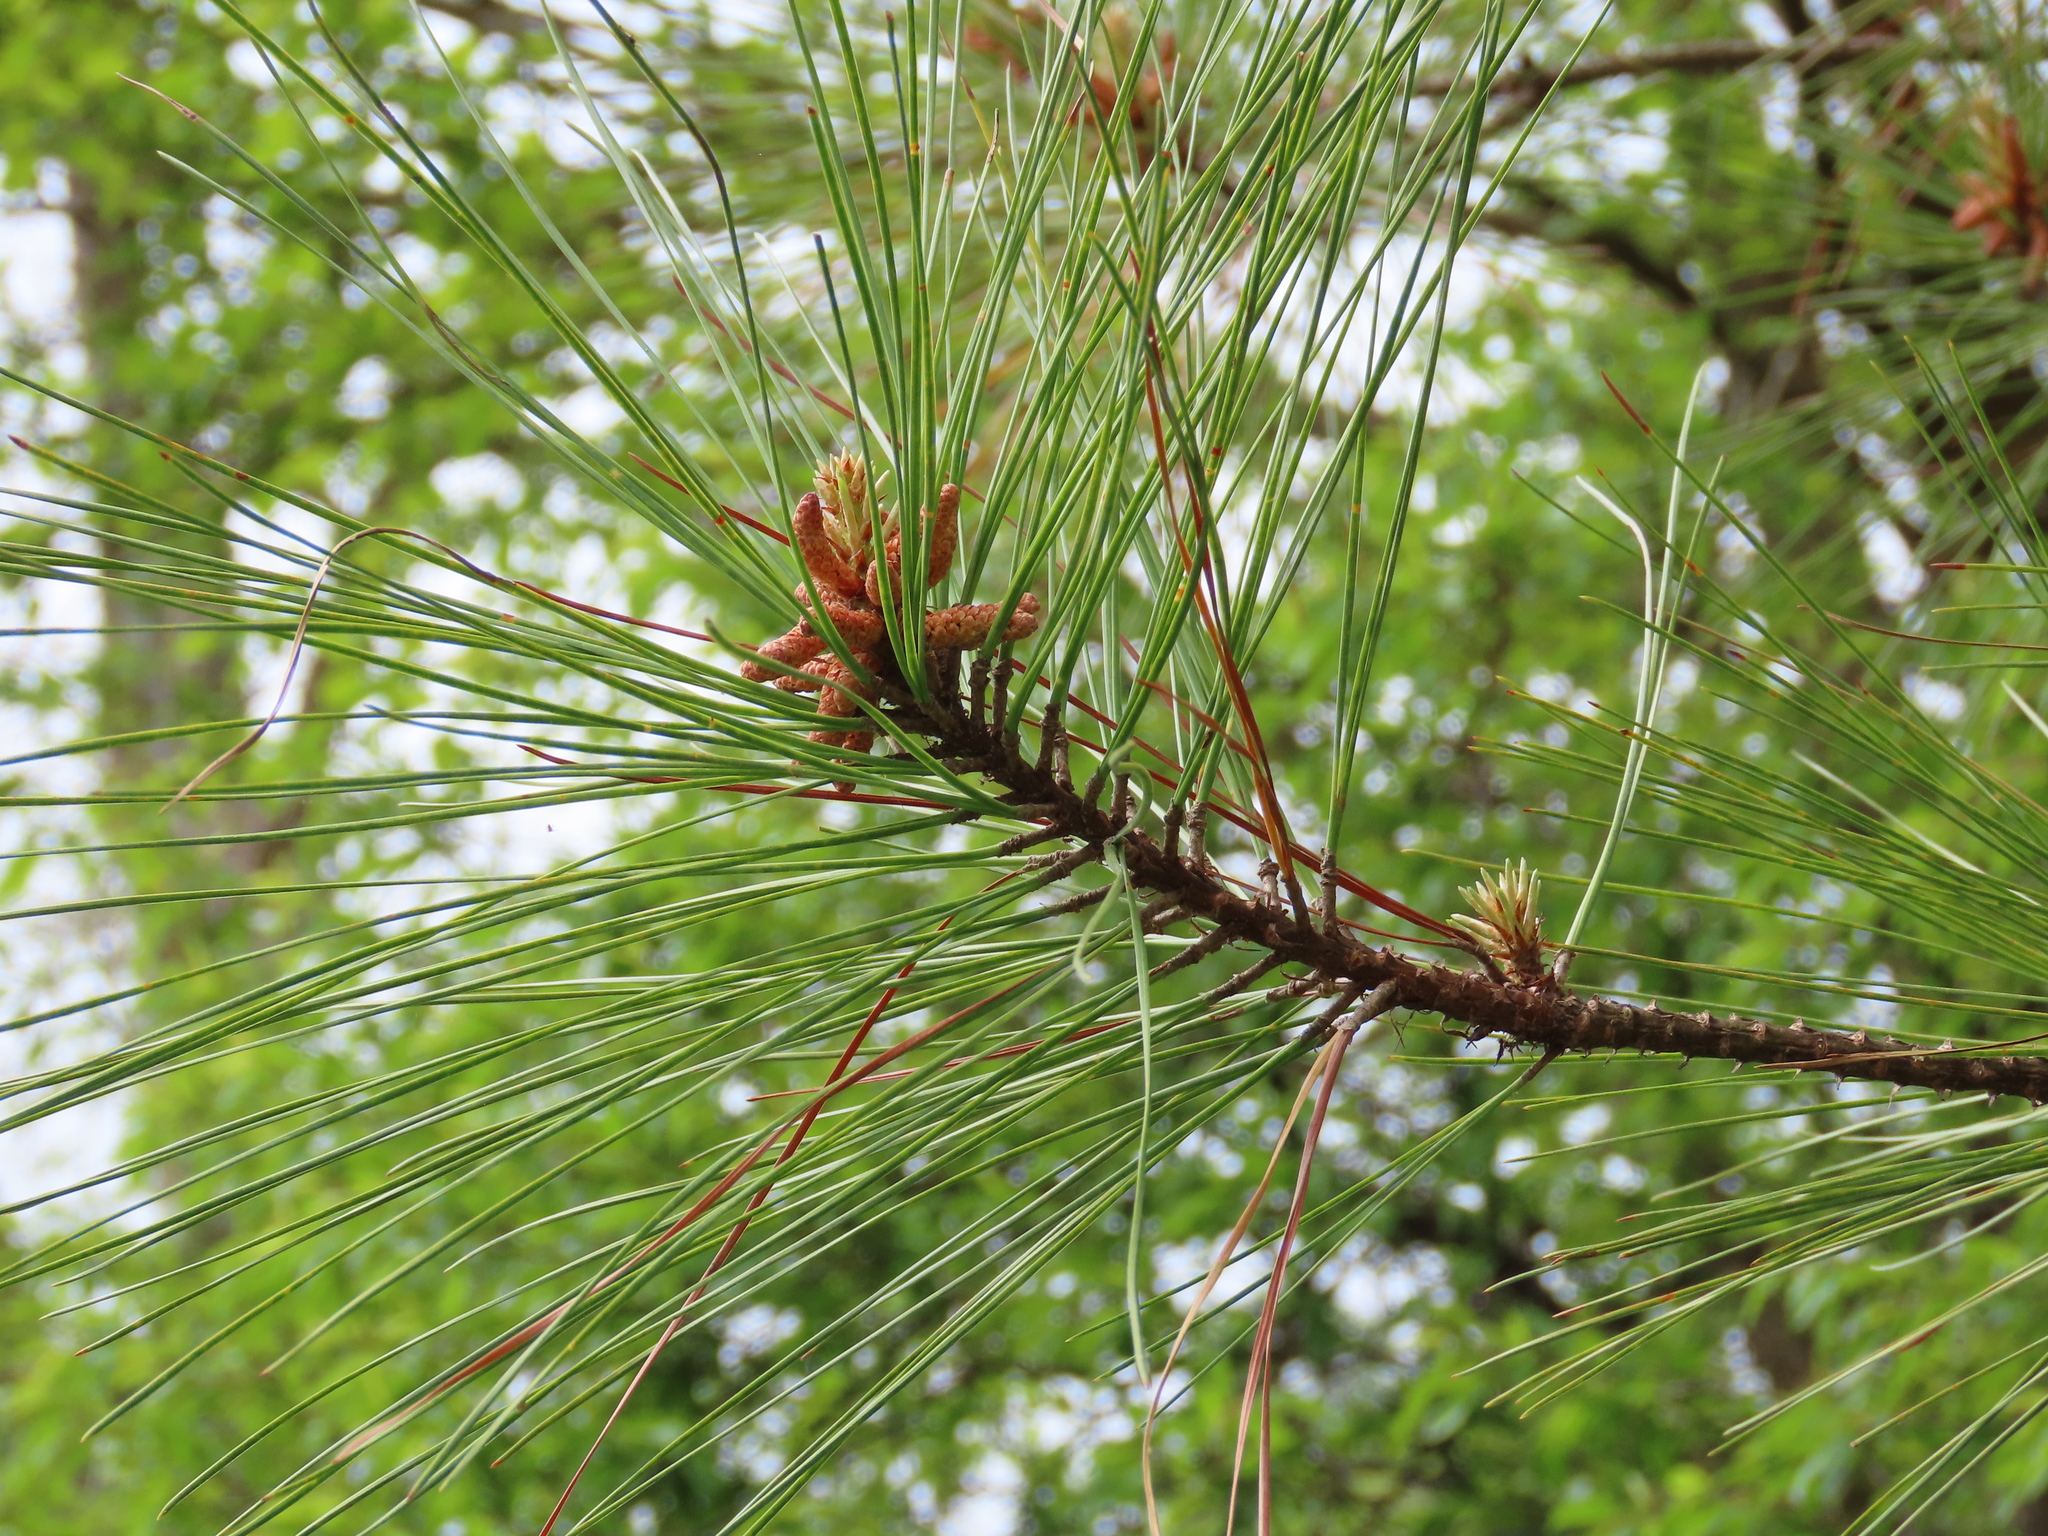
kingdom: Plantae
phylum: Tracheophyta
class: Pinopsida
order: Pinales
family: Pinaceae
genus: Pinus
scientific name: Pinus taeda
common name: Loblolly pine
